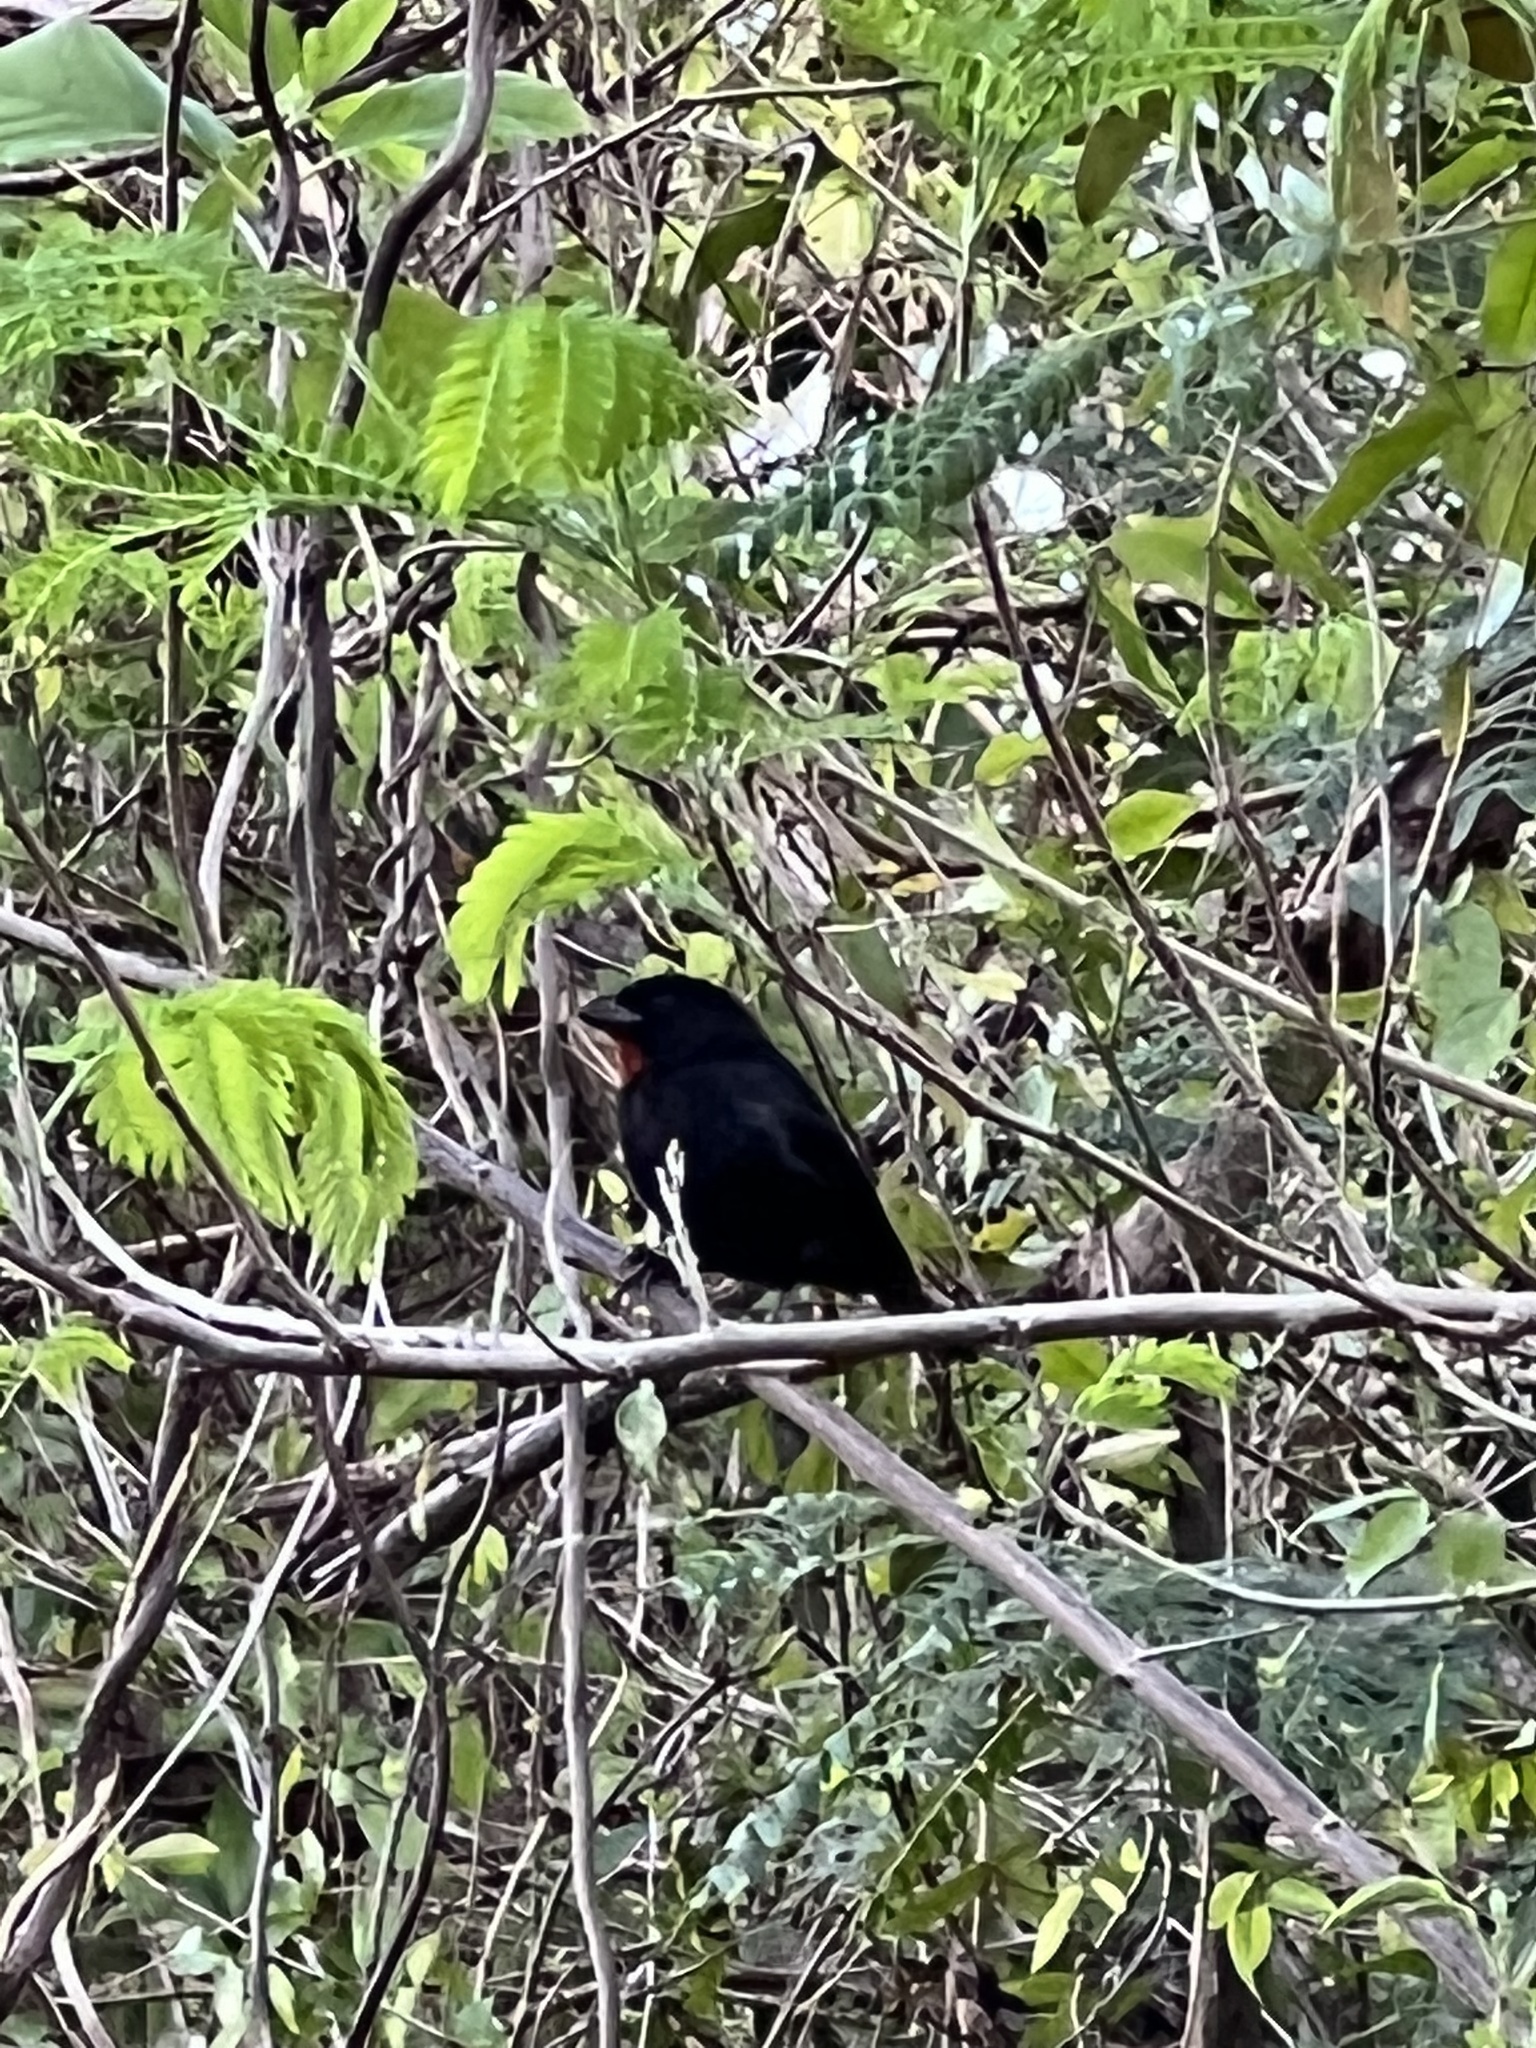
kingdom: Animalia
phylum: Chordata
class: Aves
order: Passeriformes
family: Thraupidae
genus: Loxigilla
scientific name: Loxigilla noctis
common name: Lesser antillean bullfinch
